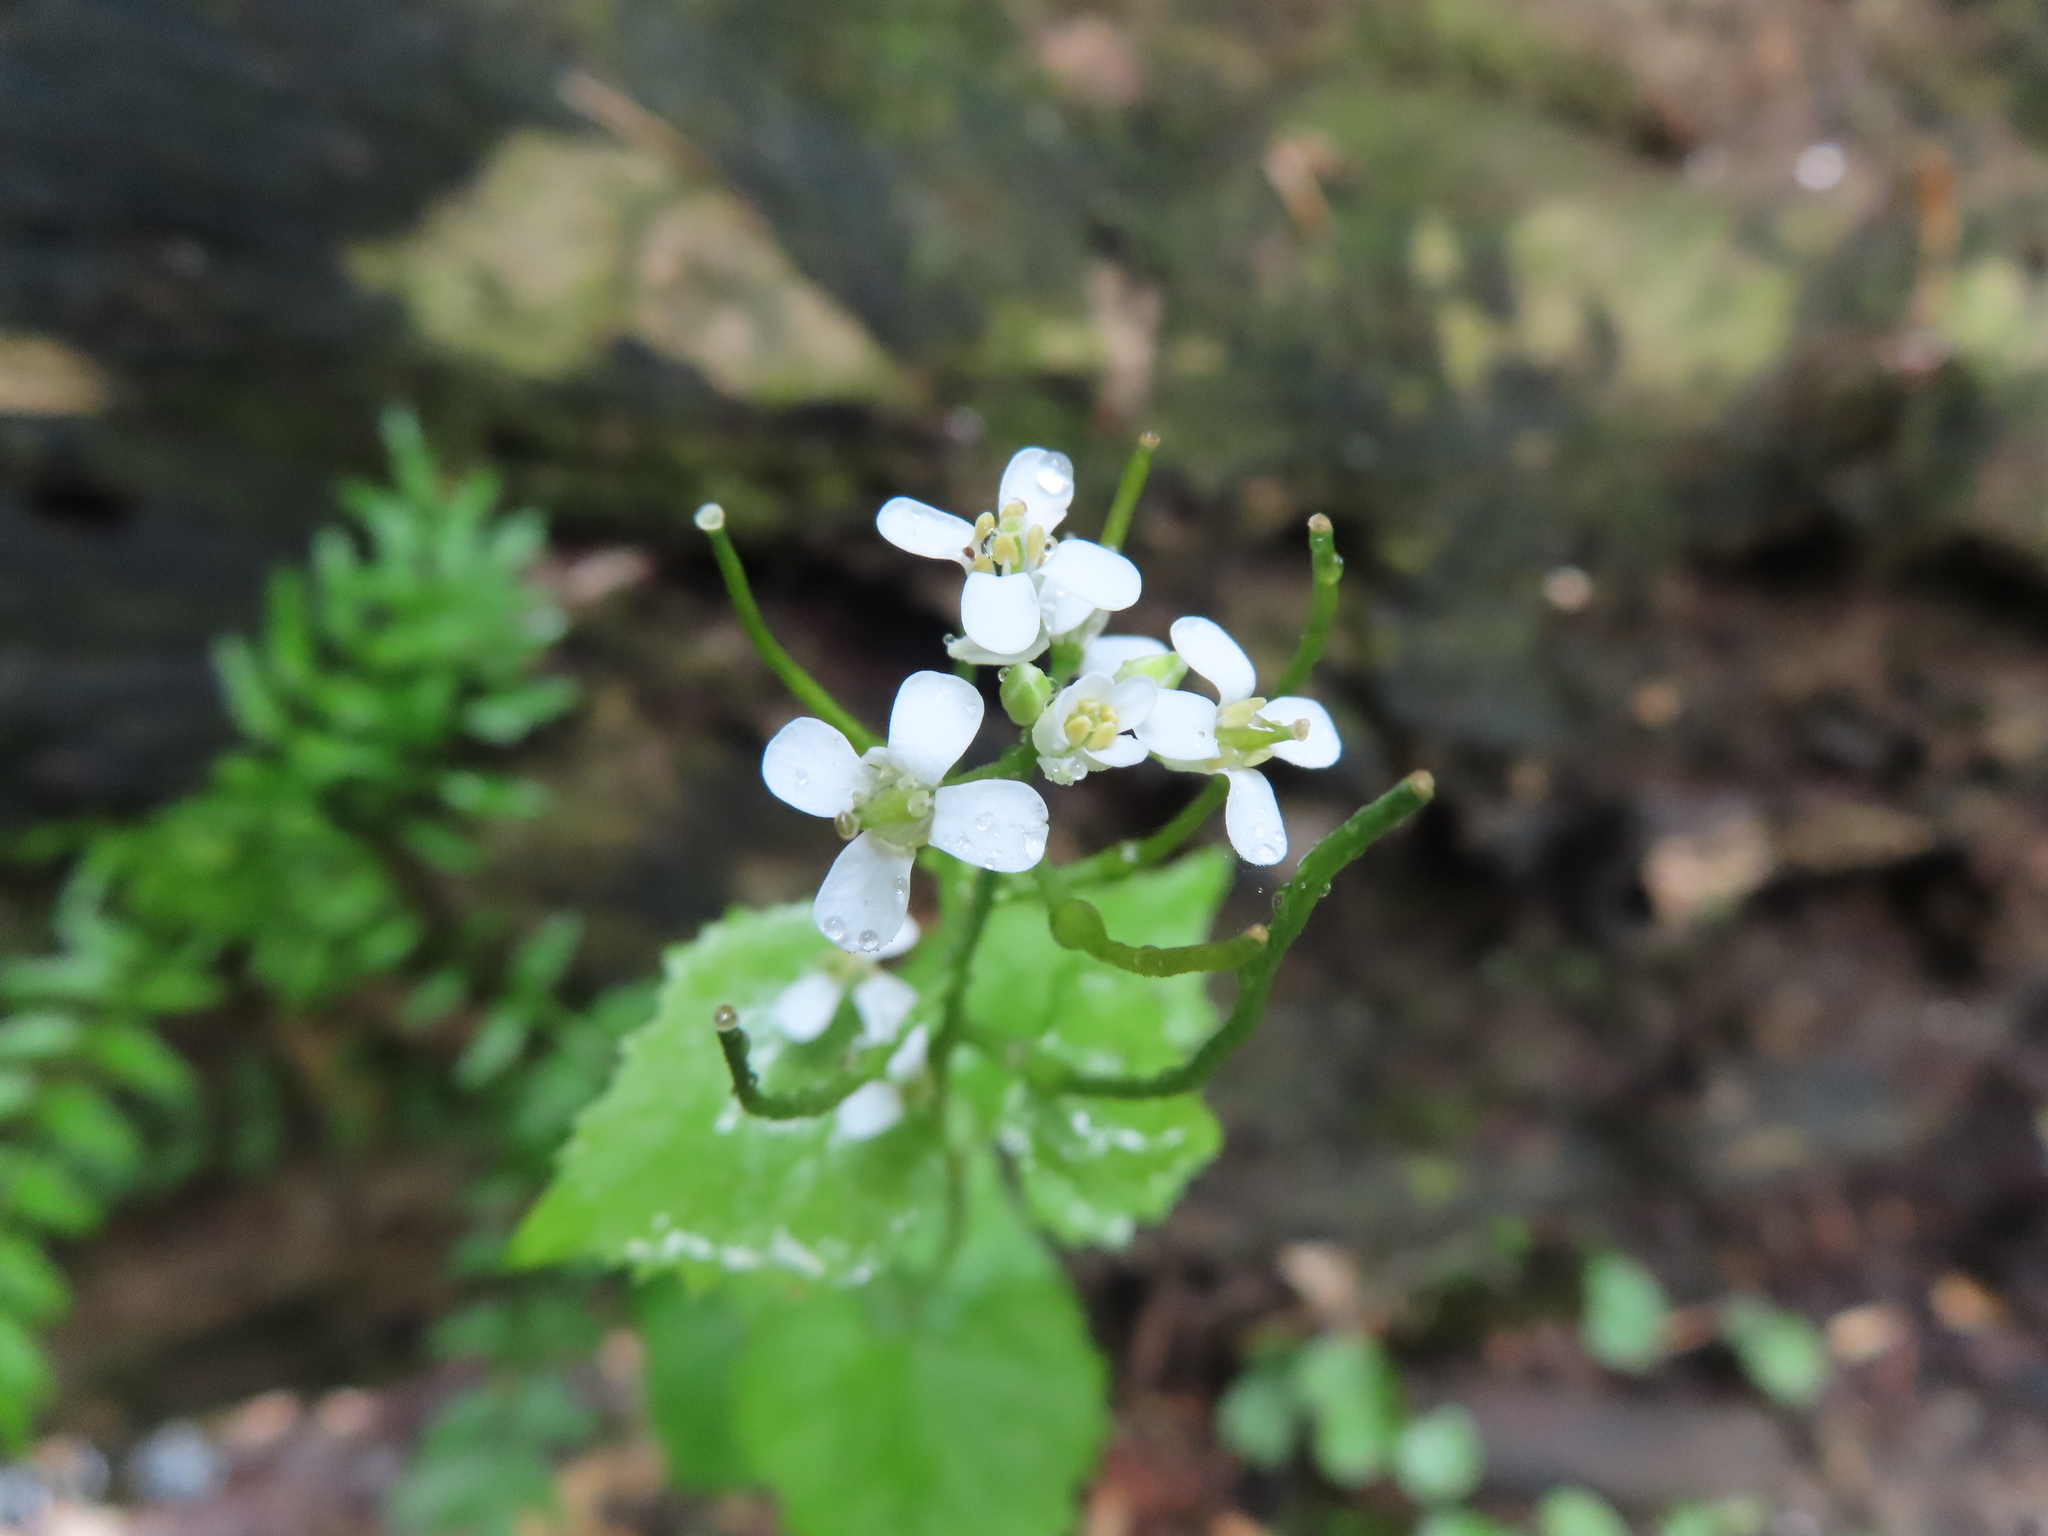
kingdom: Plantae
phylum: Tracheophyta
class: Magnoliopsida
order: Brassicales
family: Brassicaceae
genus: Alliaria
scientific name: Alliaria petiolata
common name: Garlic mustard
